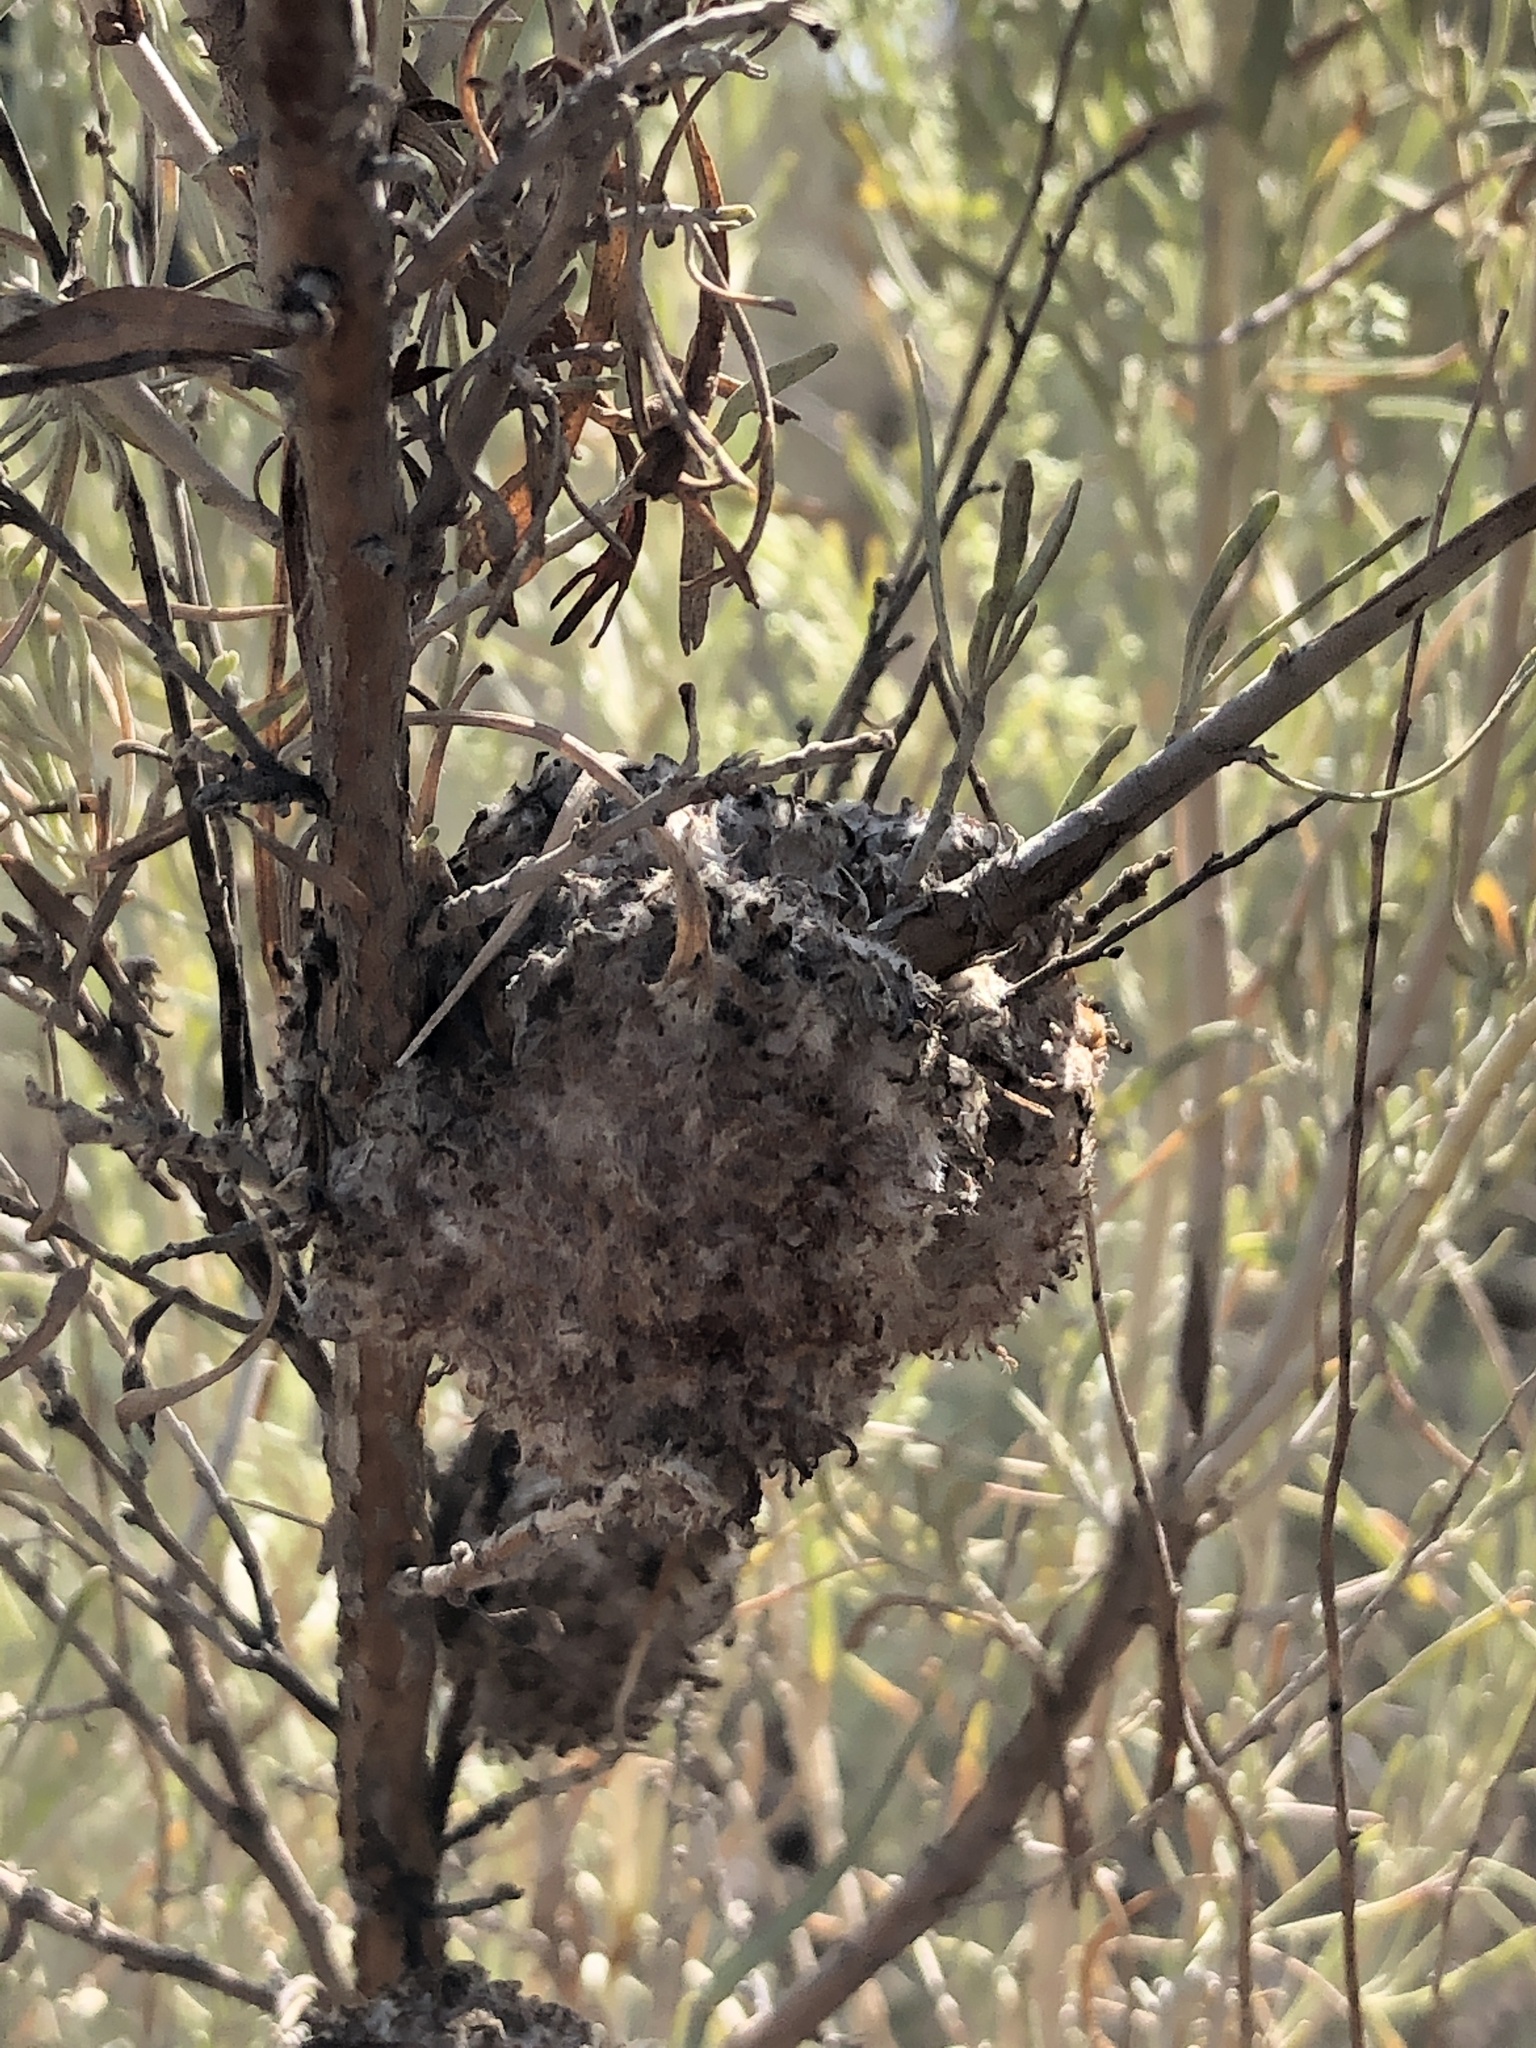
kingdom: Animalia
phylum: Arthropoda
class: Insecta
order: Diptera
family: Cecidomyiidae
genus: Rhopalomyia
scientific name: Rhopalomyia medusirrasa
